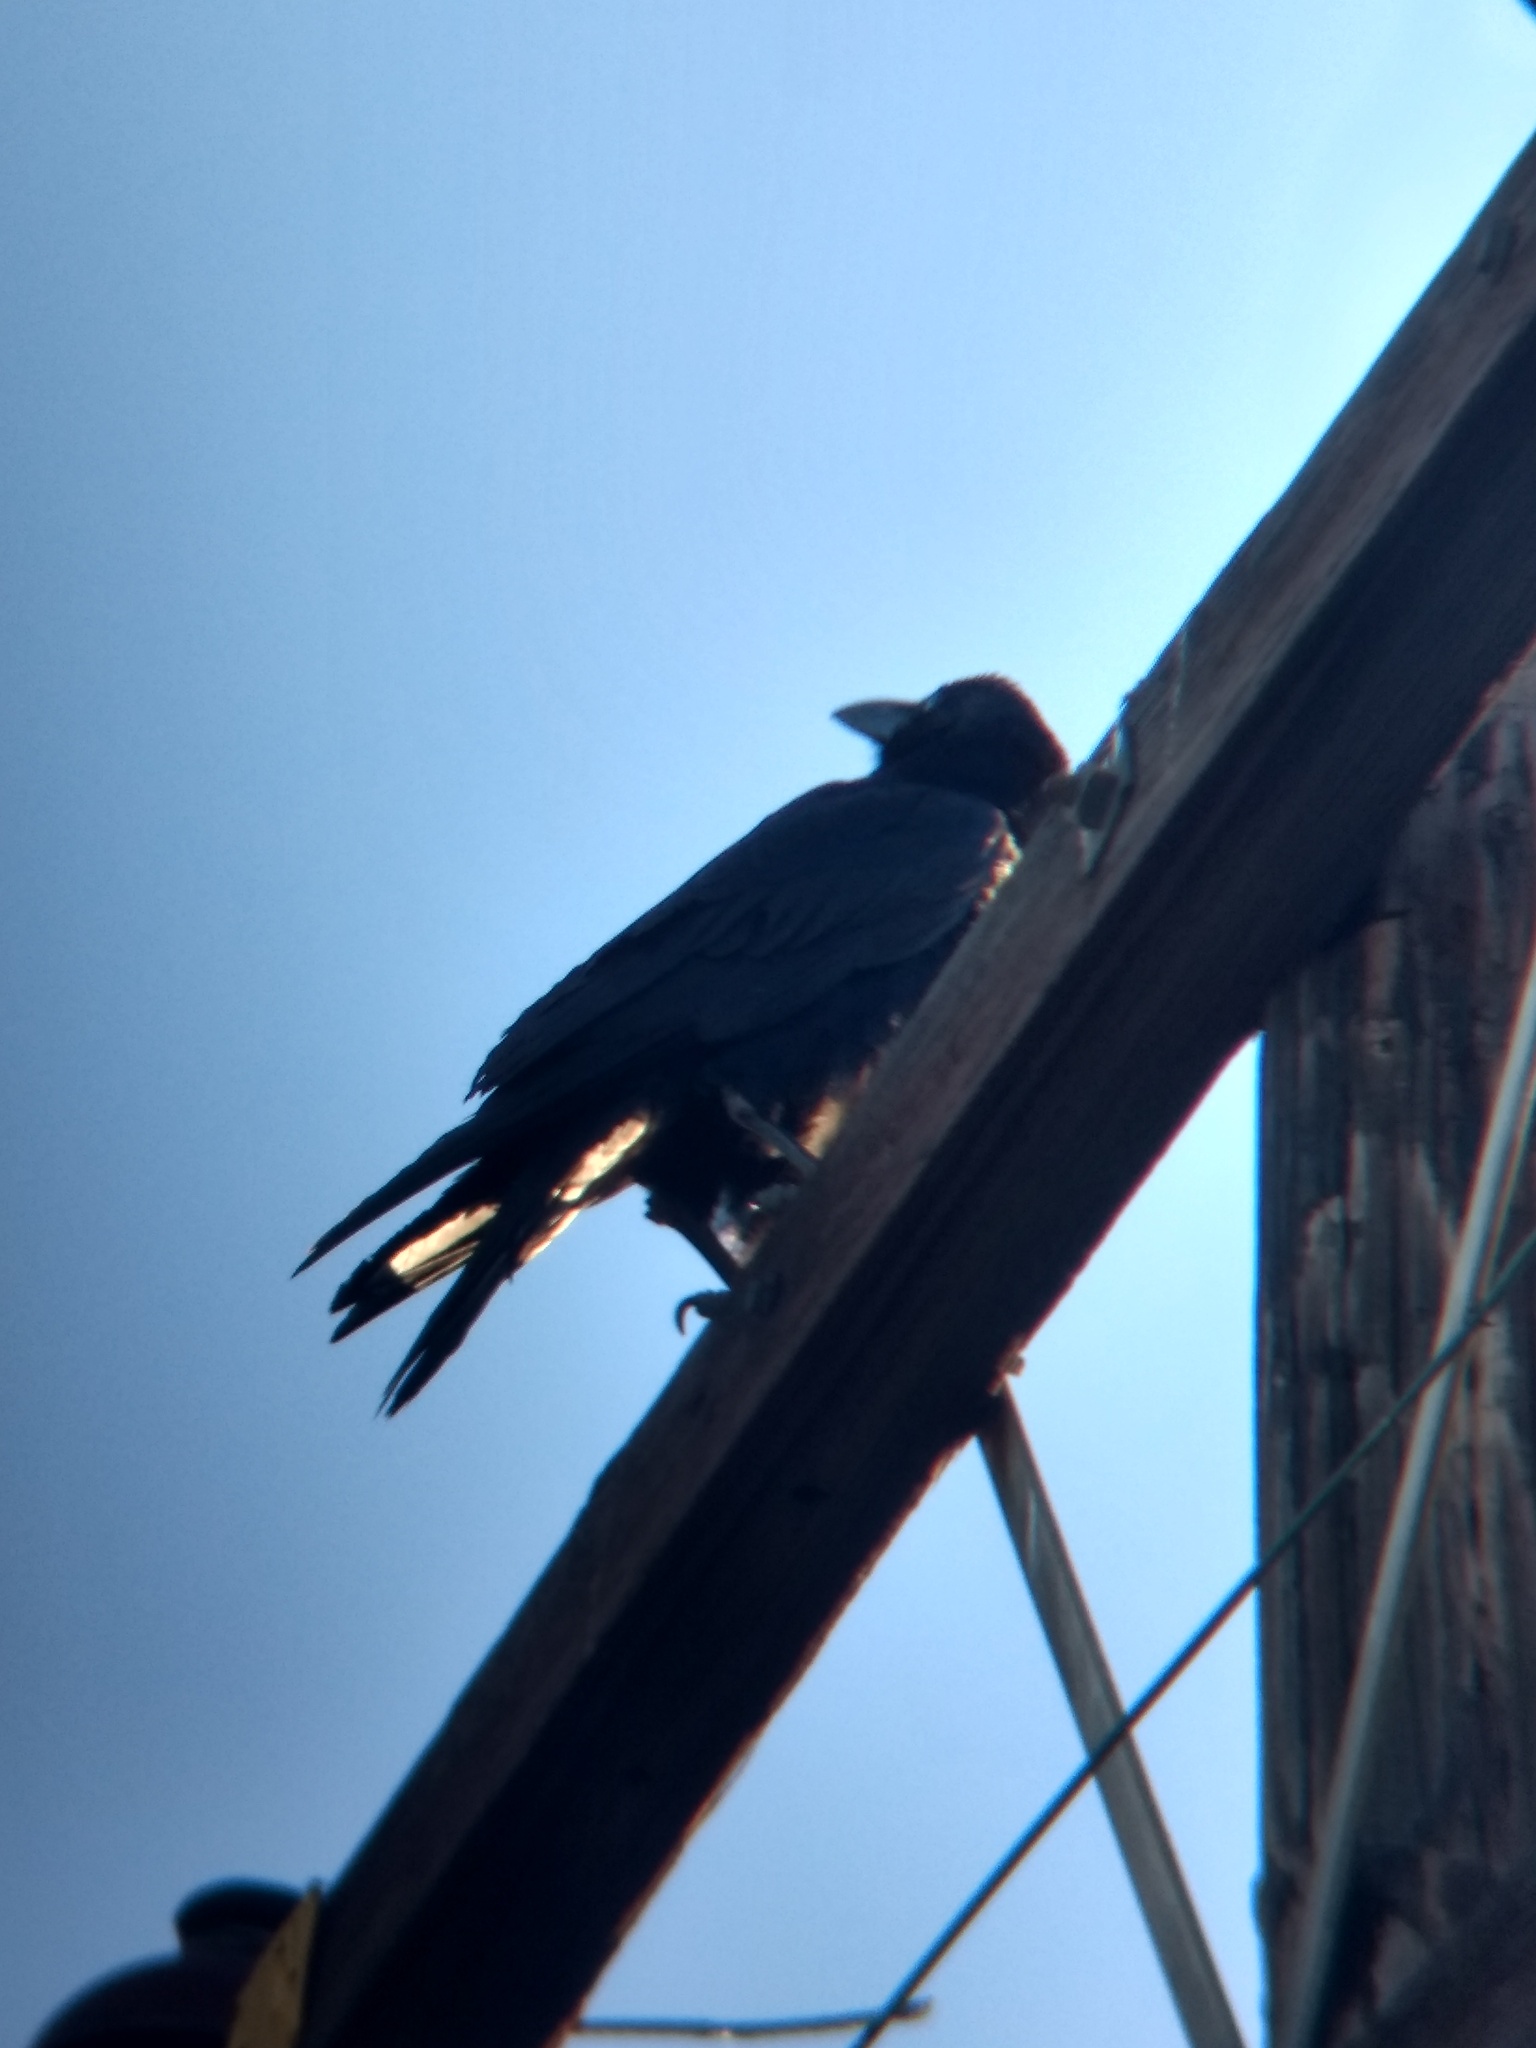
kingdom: Animalia
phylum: Chordata
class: Aves
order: Passeriformes
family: Corvidae
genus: Corvus
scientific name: Corvus corax
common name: Common raven
